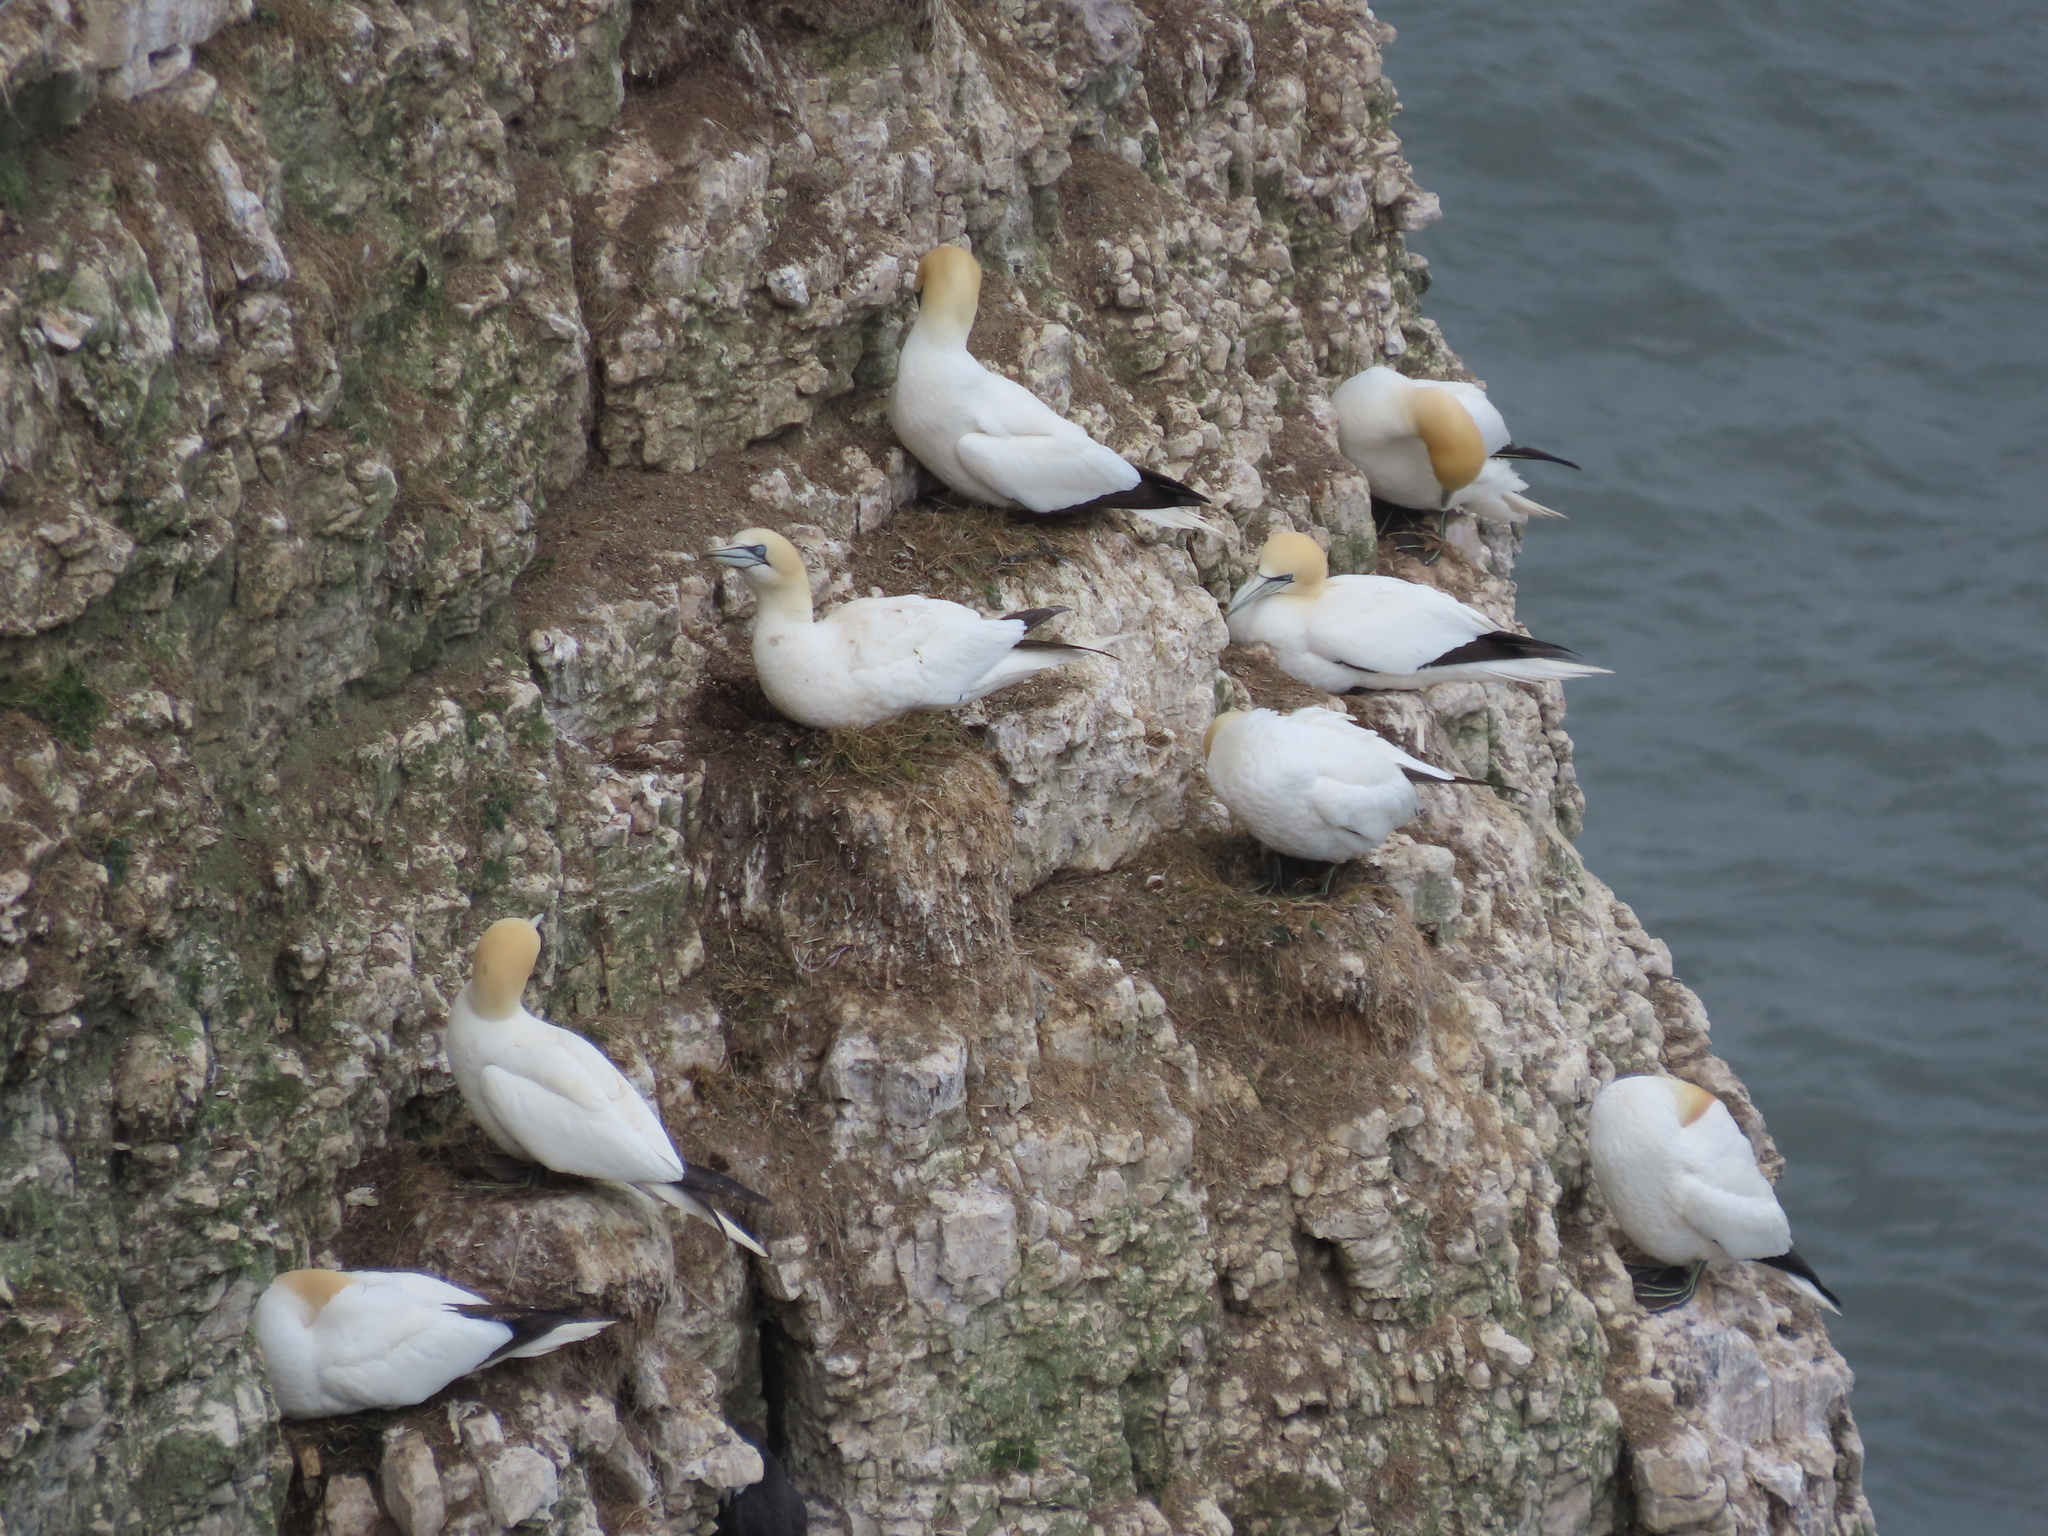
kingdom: Animalia
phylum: Chordata
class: Aves
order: Suliformes
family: Sulidae
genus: Morus
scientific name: Morus bassanus
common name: Northern gannet
